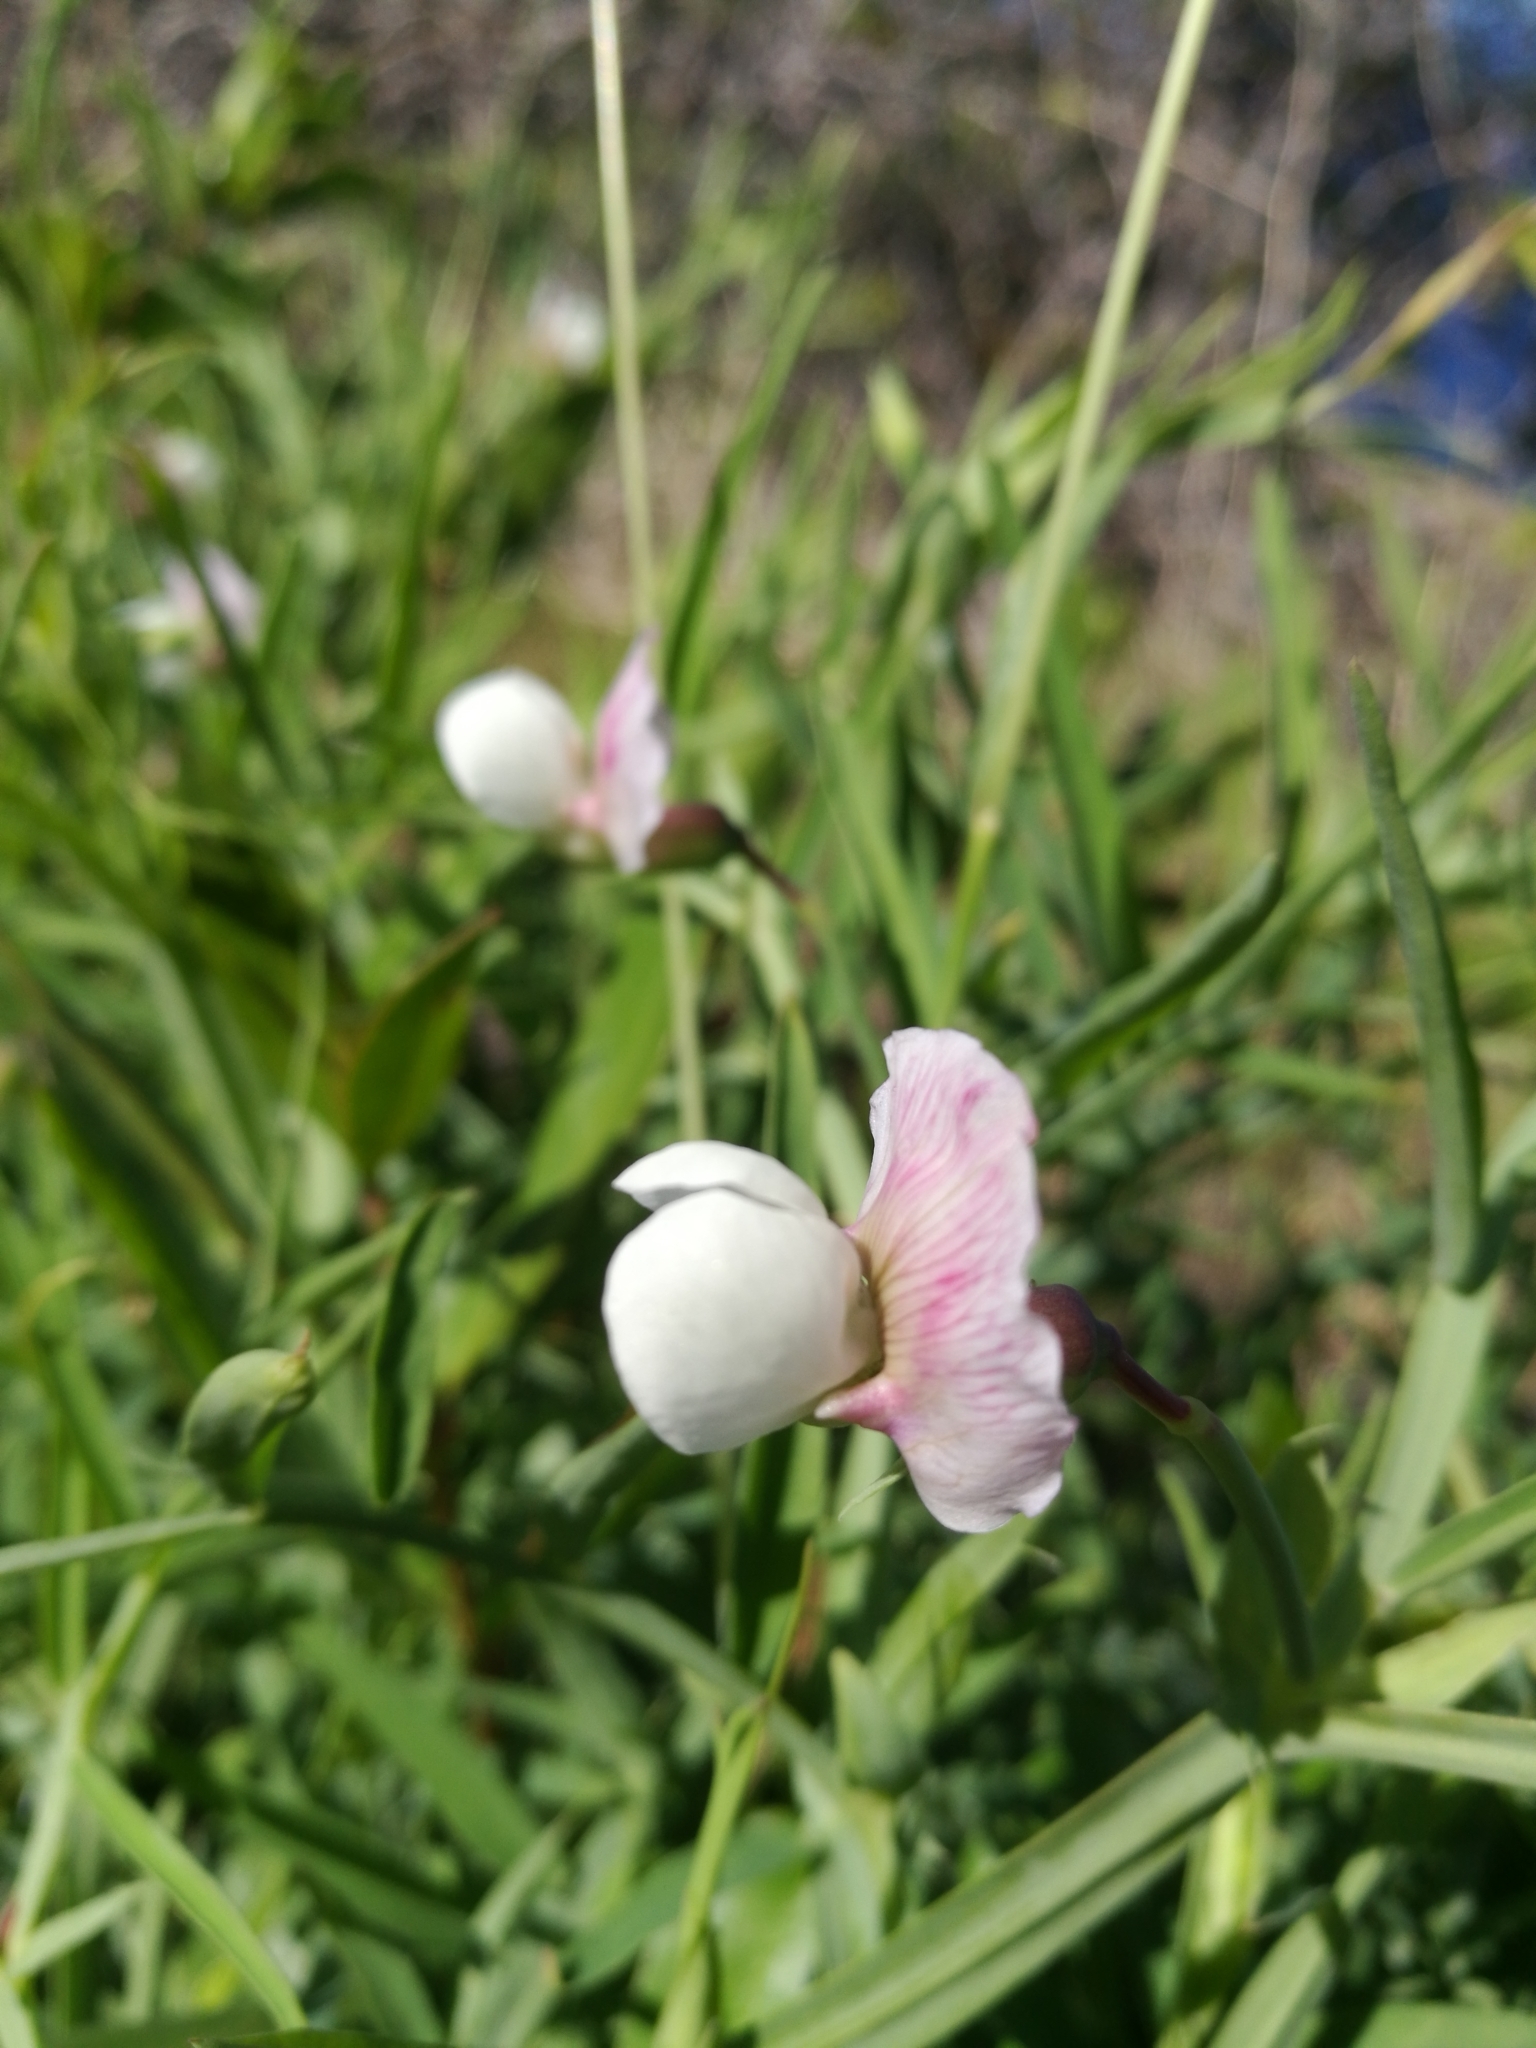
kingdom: Plantae
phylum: Tracheophyta
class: Magnoliopsida
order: Fabales
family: Fabaceae
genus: Lathyrus
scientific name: Lathyrus sativus
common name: Indian pea
